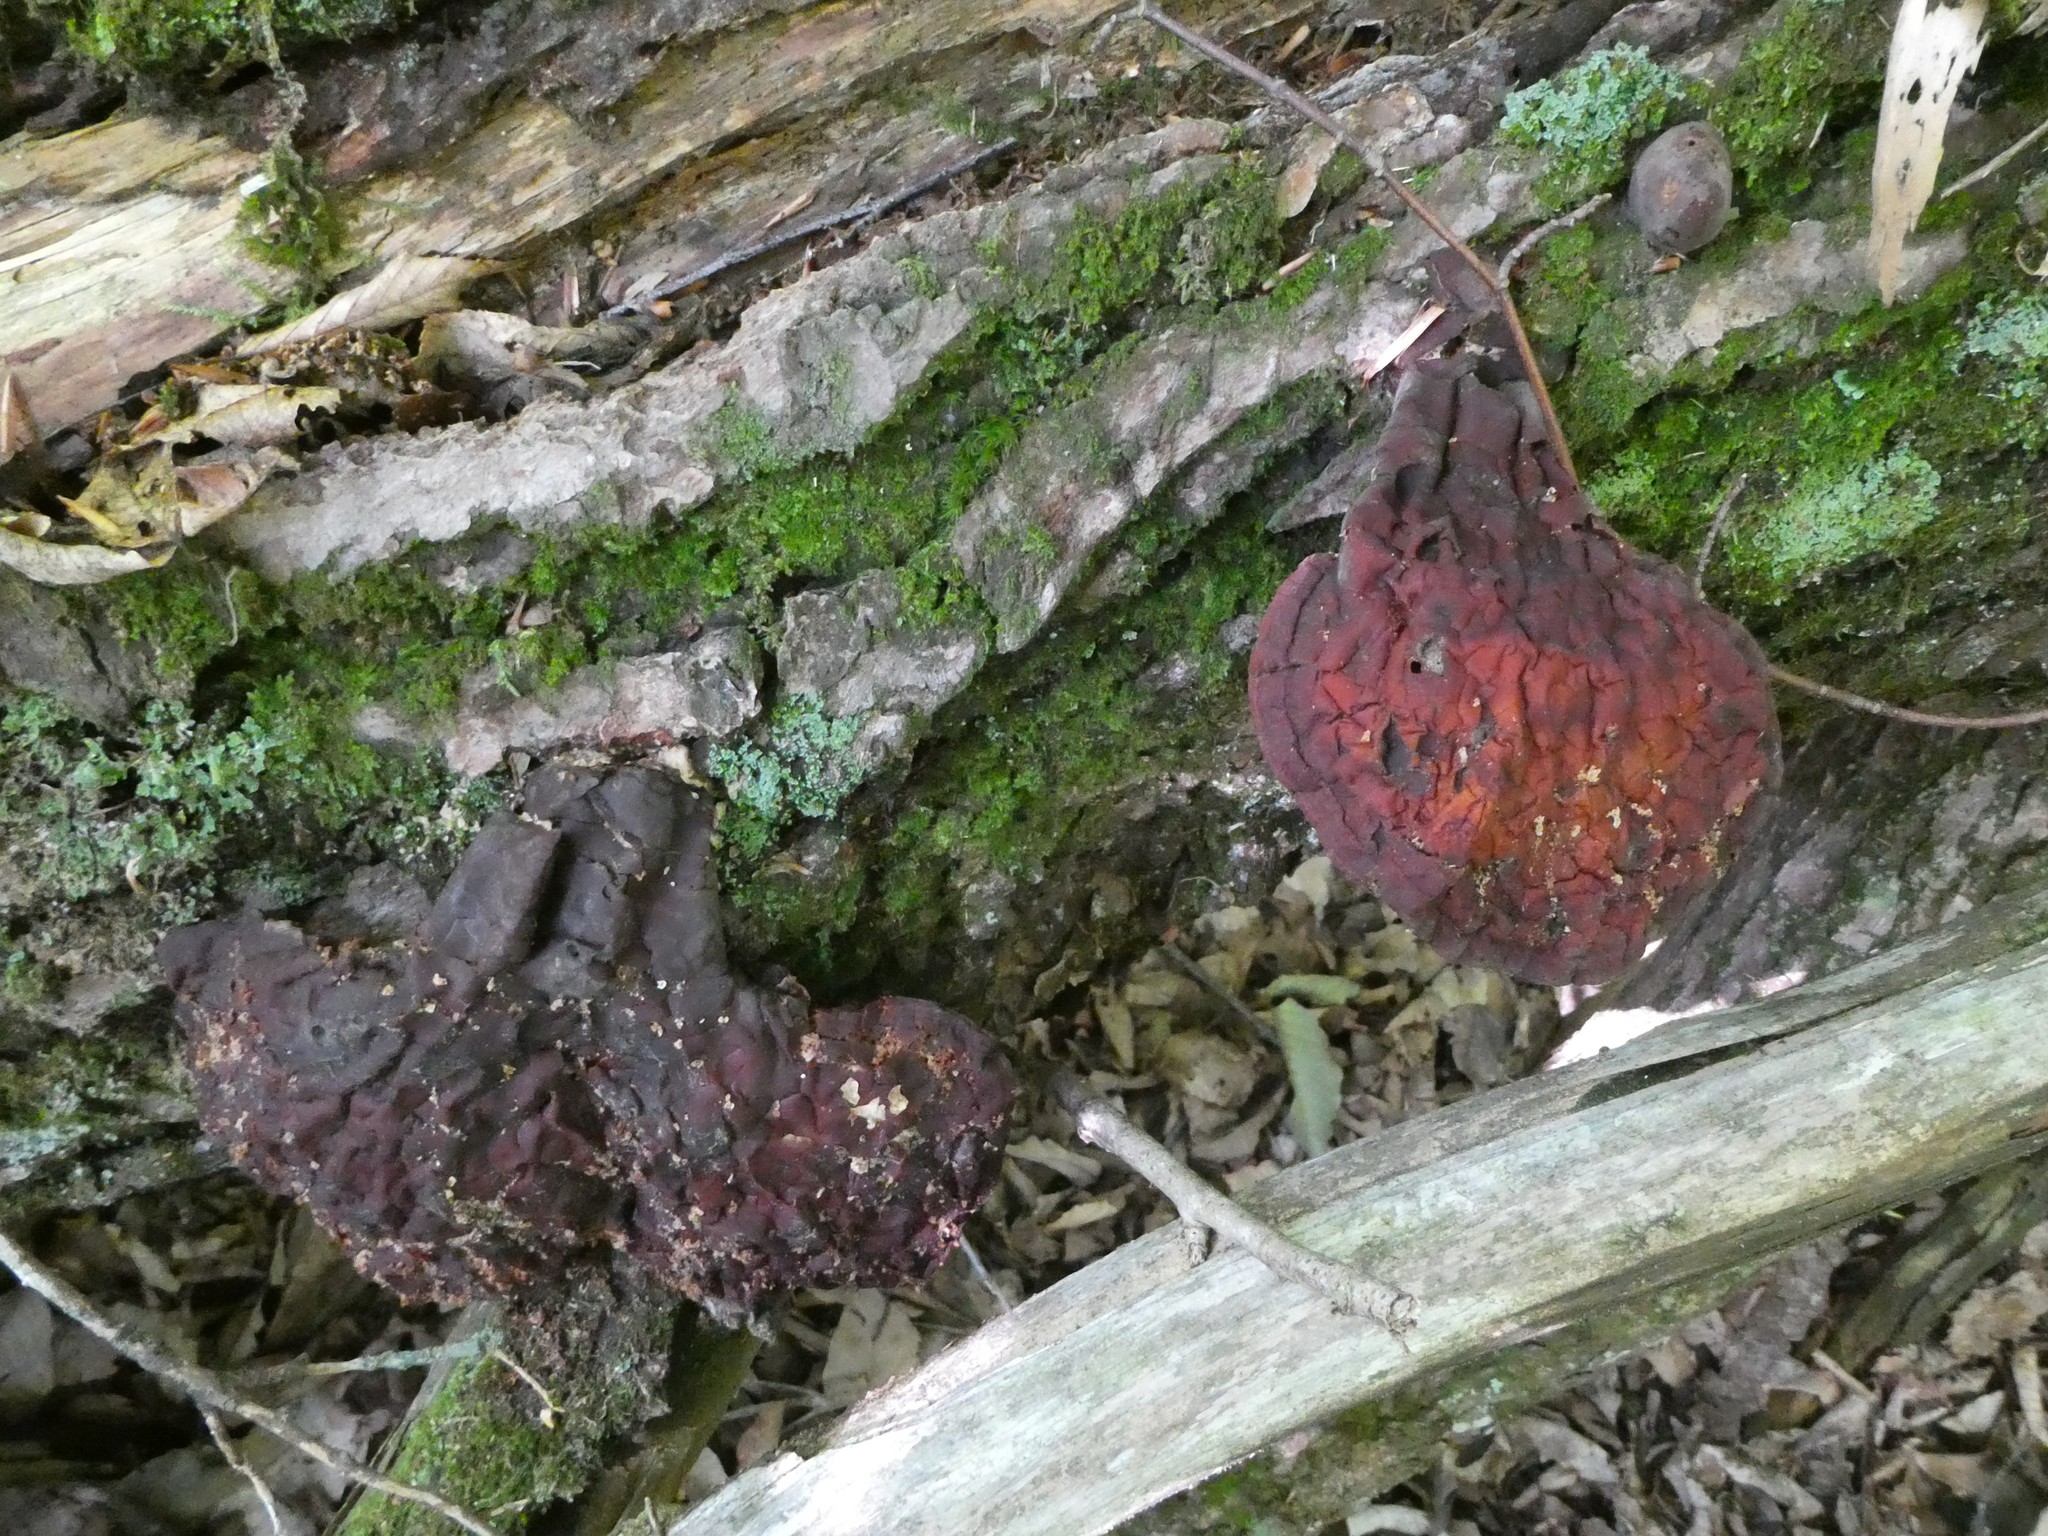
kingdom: Fungi
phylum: Basidiomycota
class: Agaricomycetes
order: Polyporales
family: Polyporaceae
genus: Ganoderma
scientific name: Ganoderma tsugae
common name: Hemlock varnish shelf
